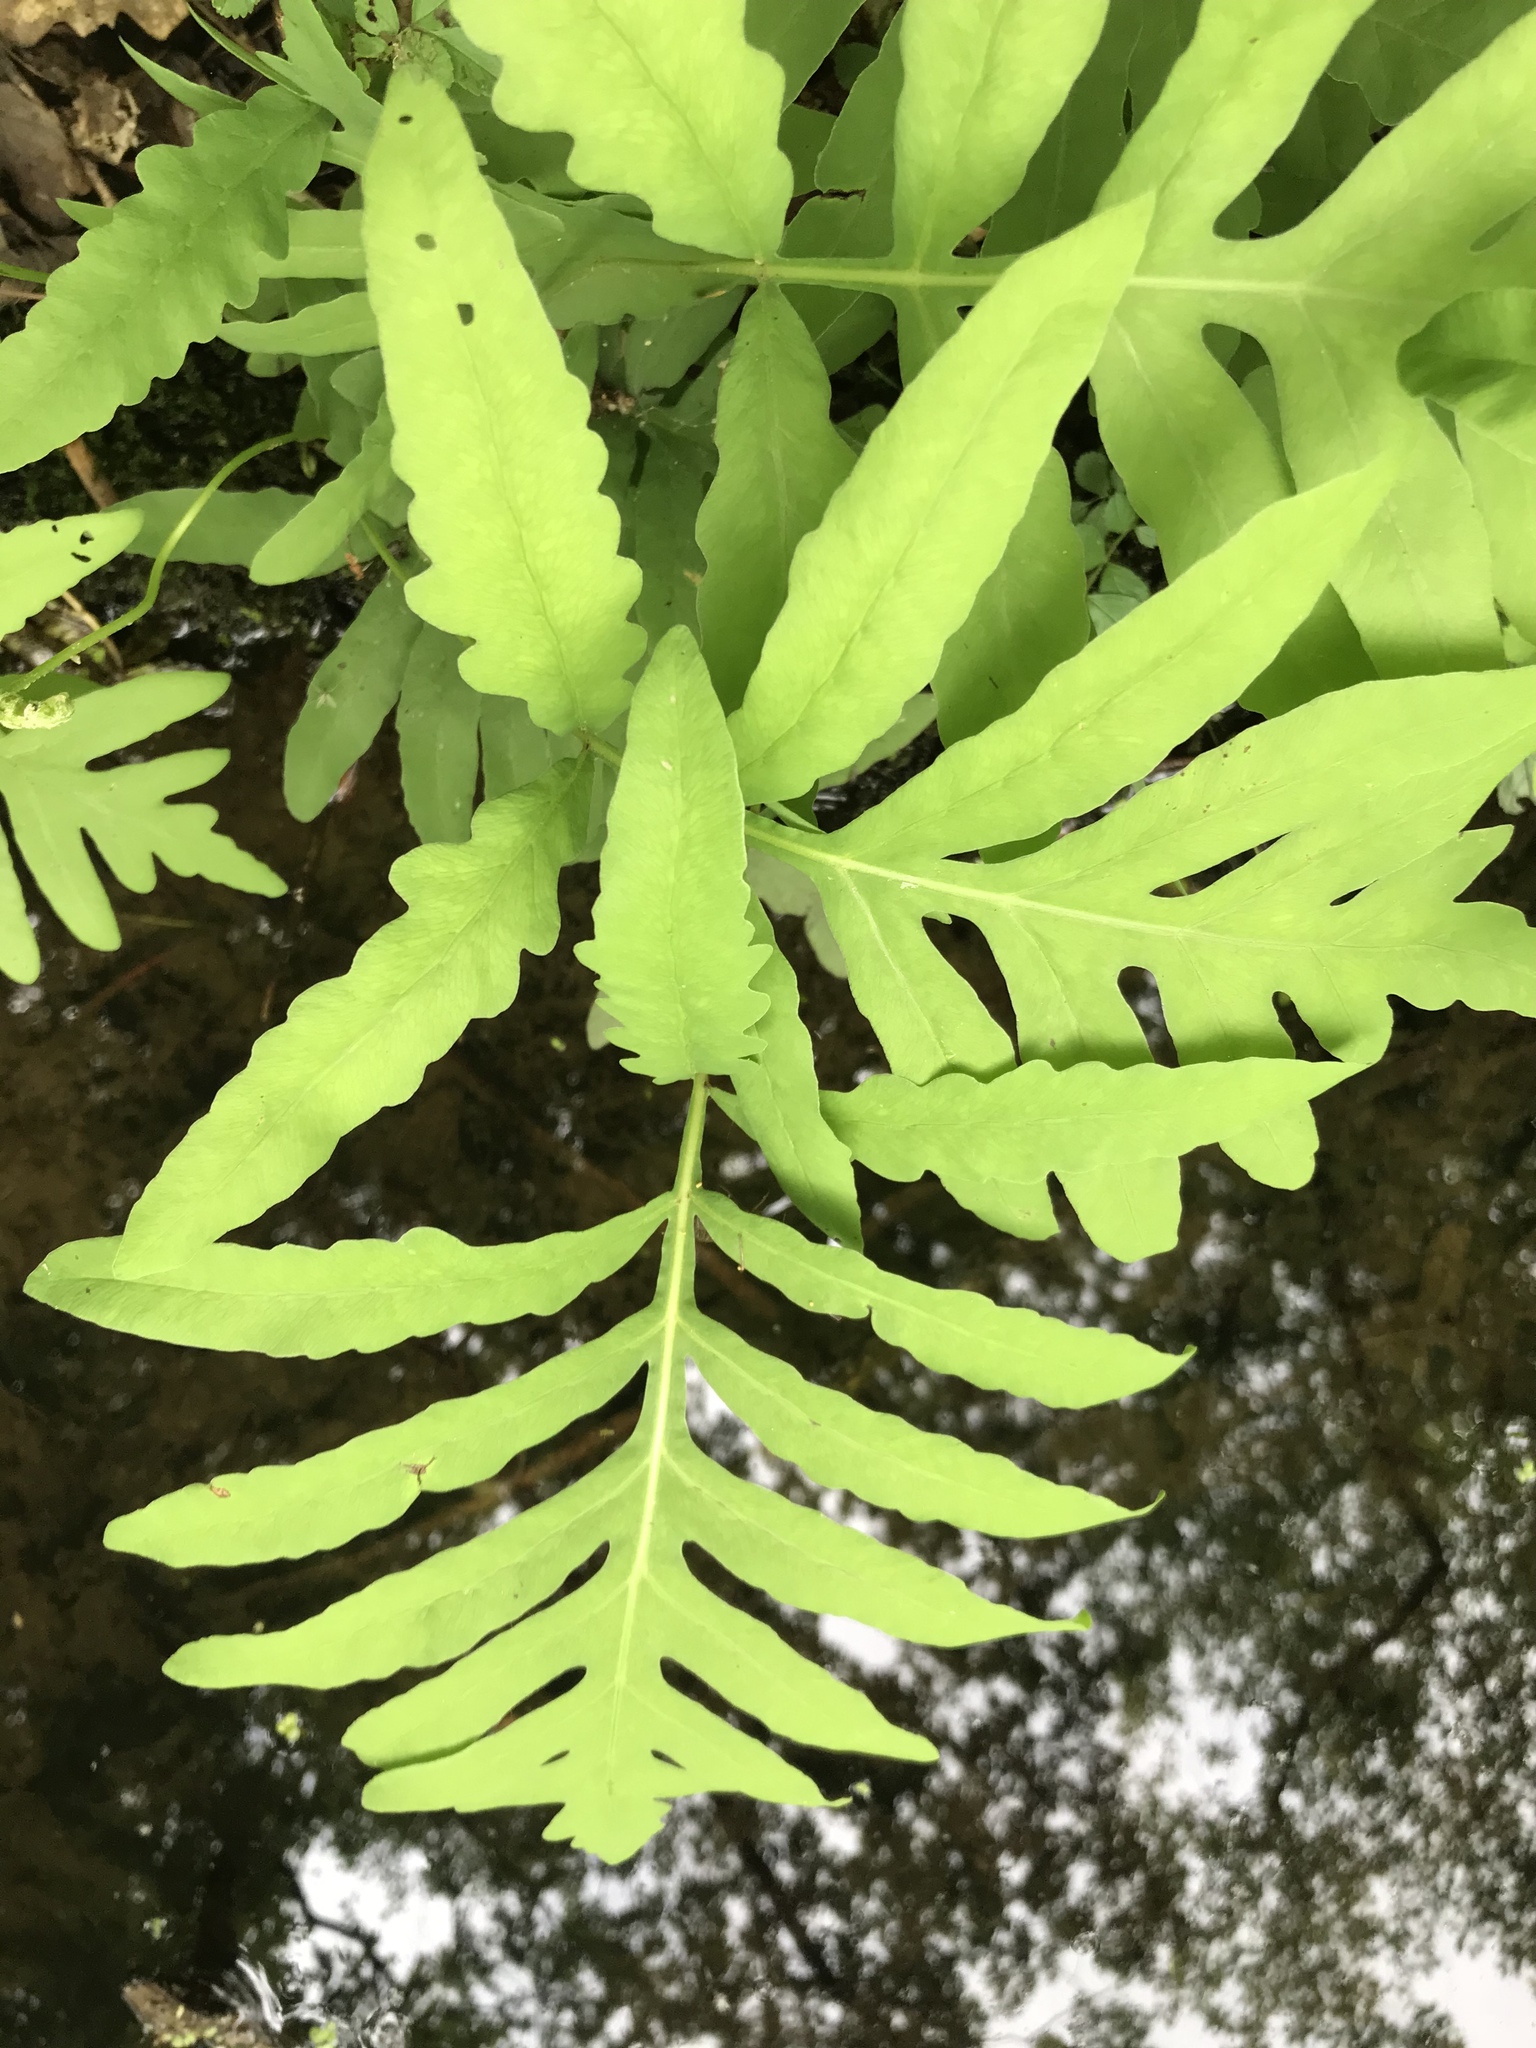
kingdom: Plantae
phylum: Tracheophyta
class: Polypodiopsida
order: Polypodiales
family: Onocleaceae
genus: Onoclea
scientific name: Onoclea sensibilis
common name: Sensitive fern
